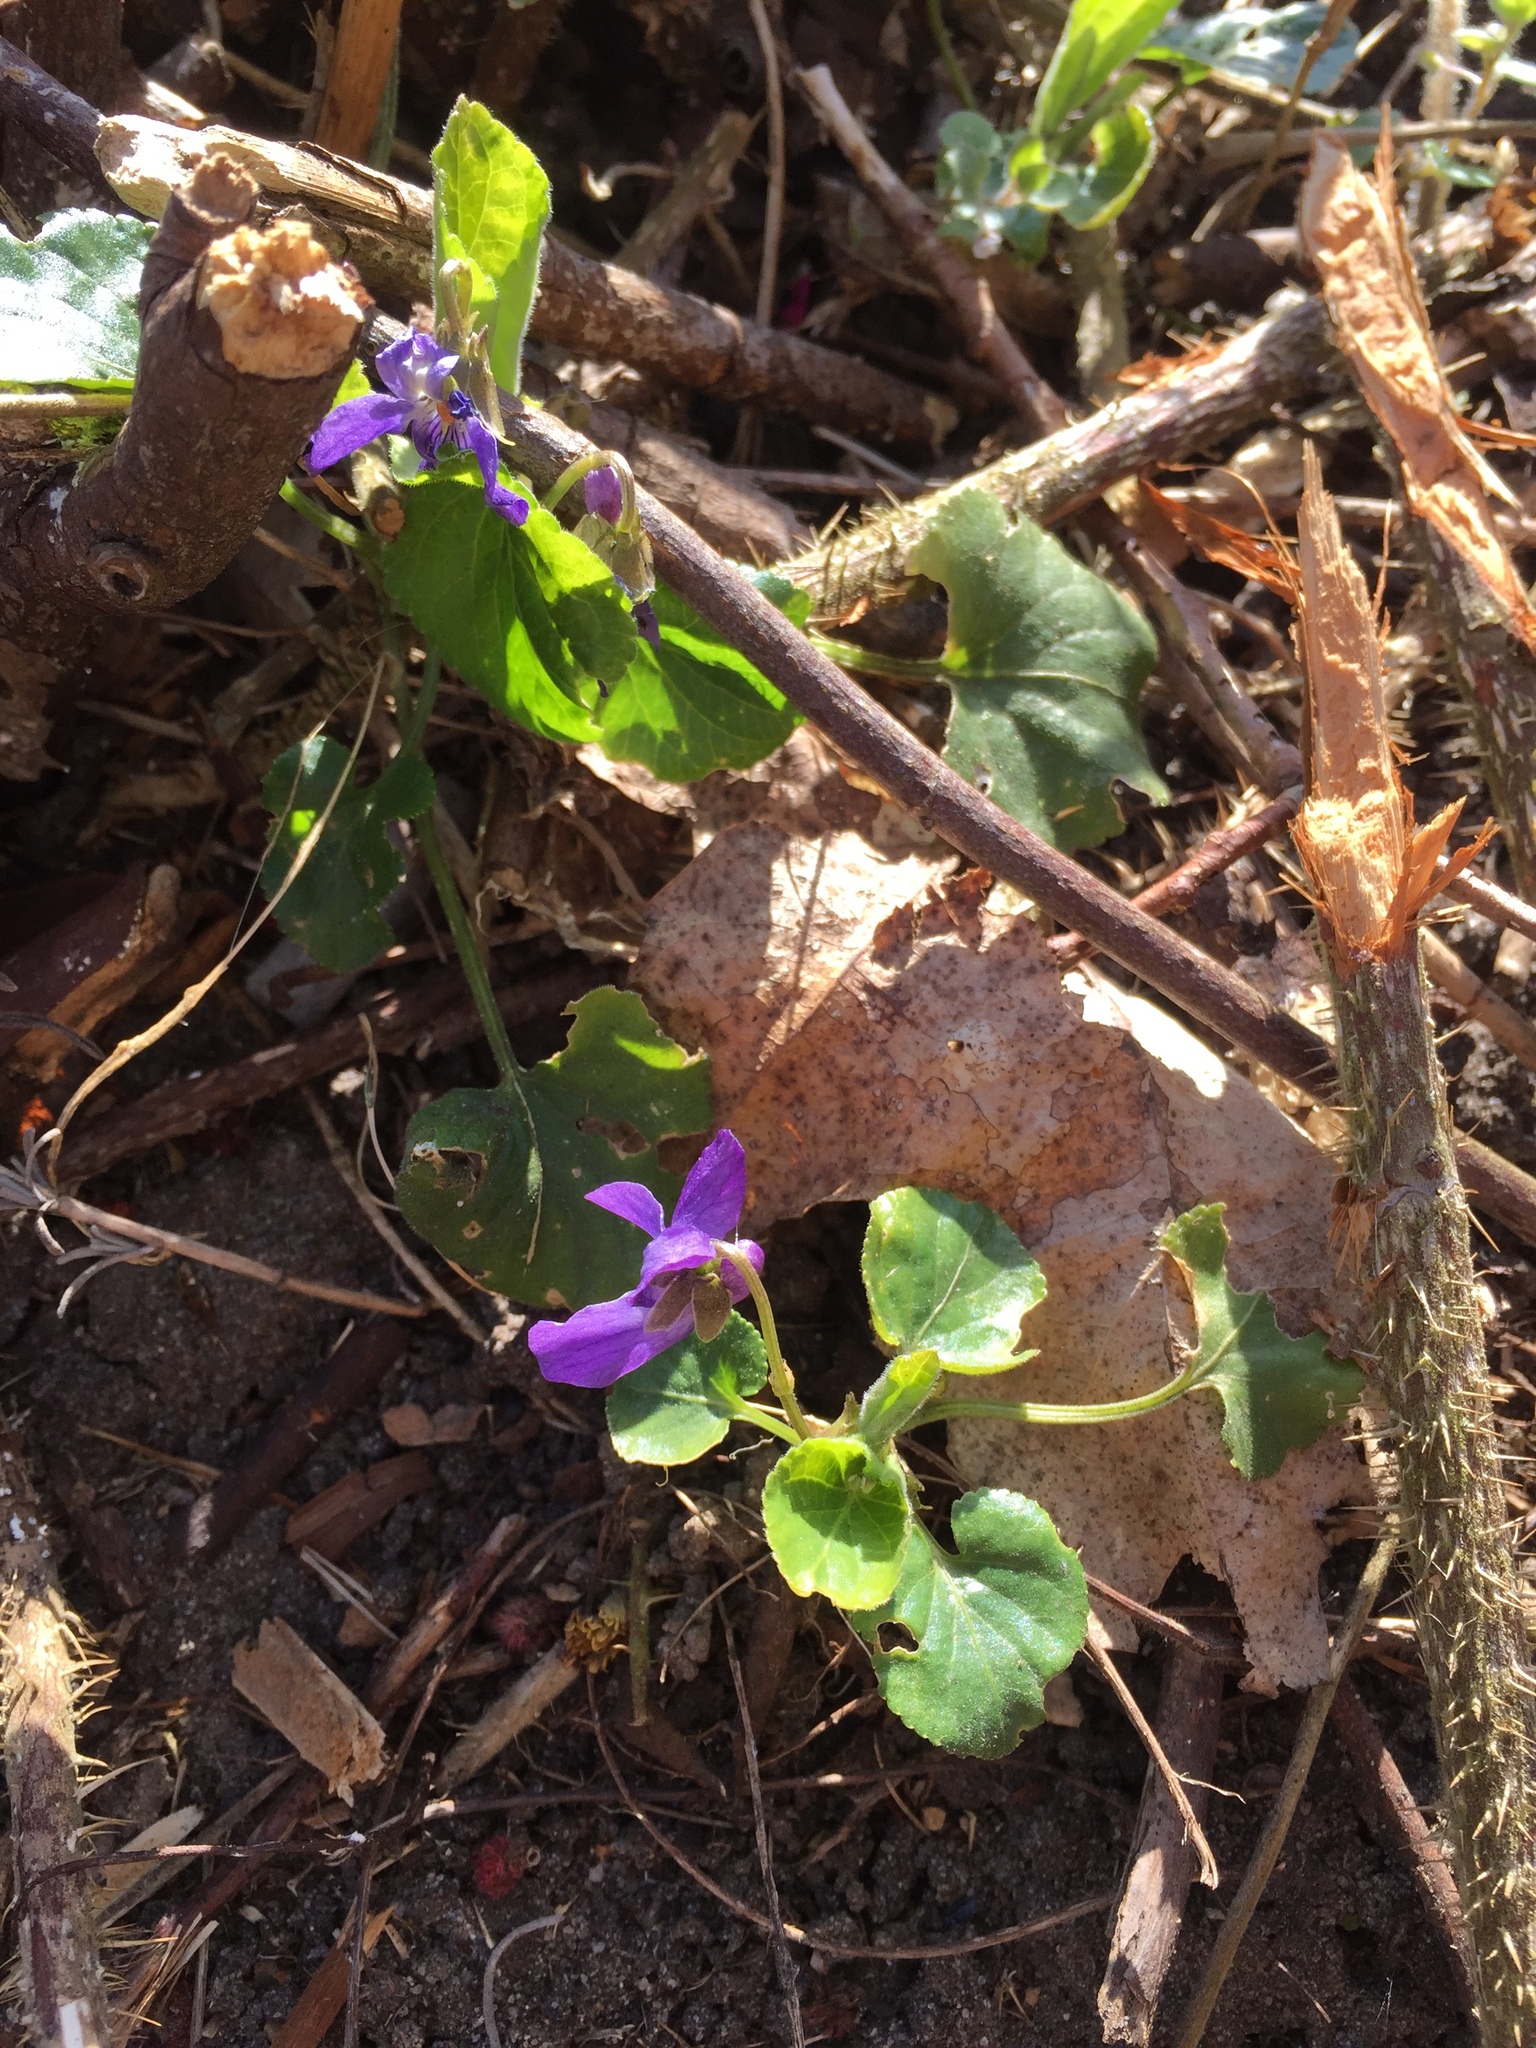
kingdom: Plantae
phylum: Tracheophyta
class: Magnoliopsida
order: Malpighiales
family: Violaceae
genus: Viola
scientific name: Viola odorata
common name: Sweet violet
